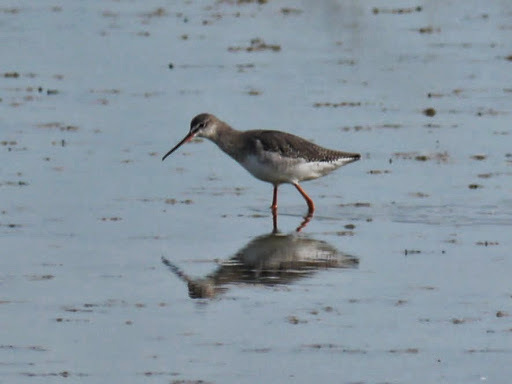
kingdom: Animalia
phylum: Chordata
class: Aves
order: Charadriiformes
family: Scolopacidae
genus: Tringa
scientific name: Tringa erythropus
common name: Spotted redshank
